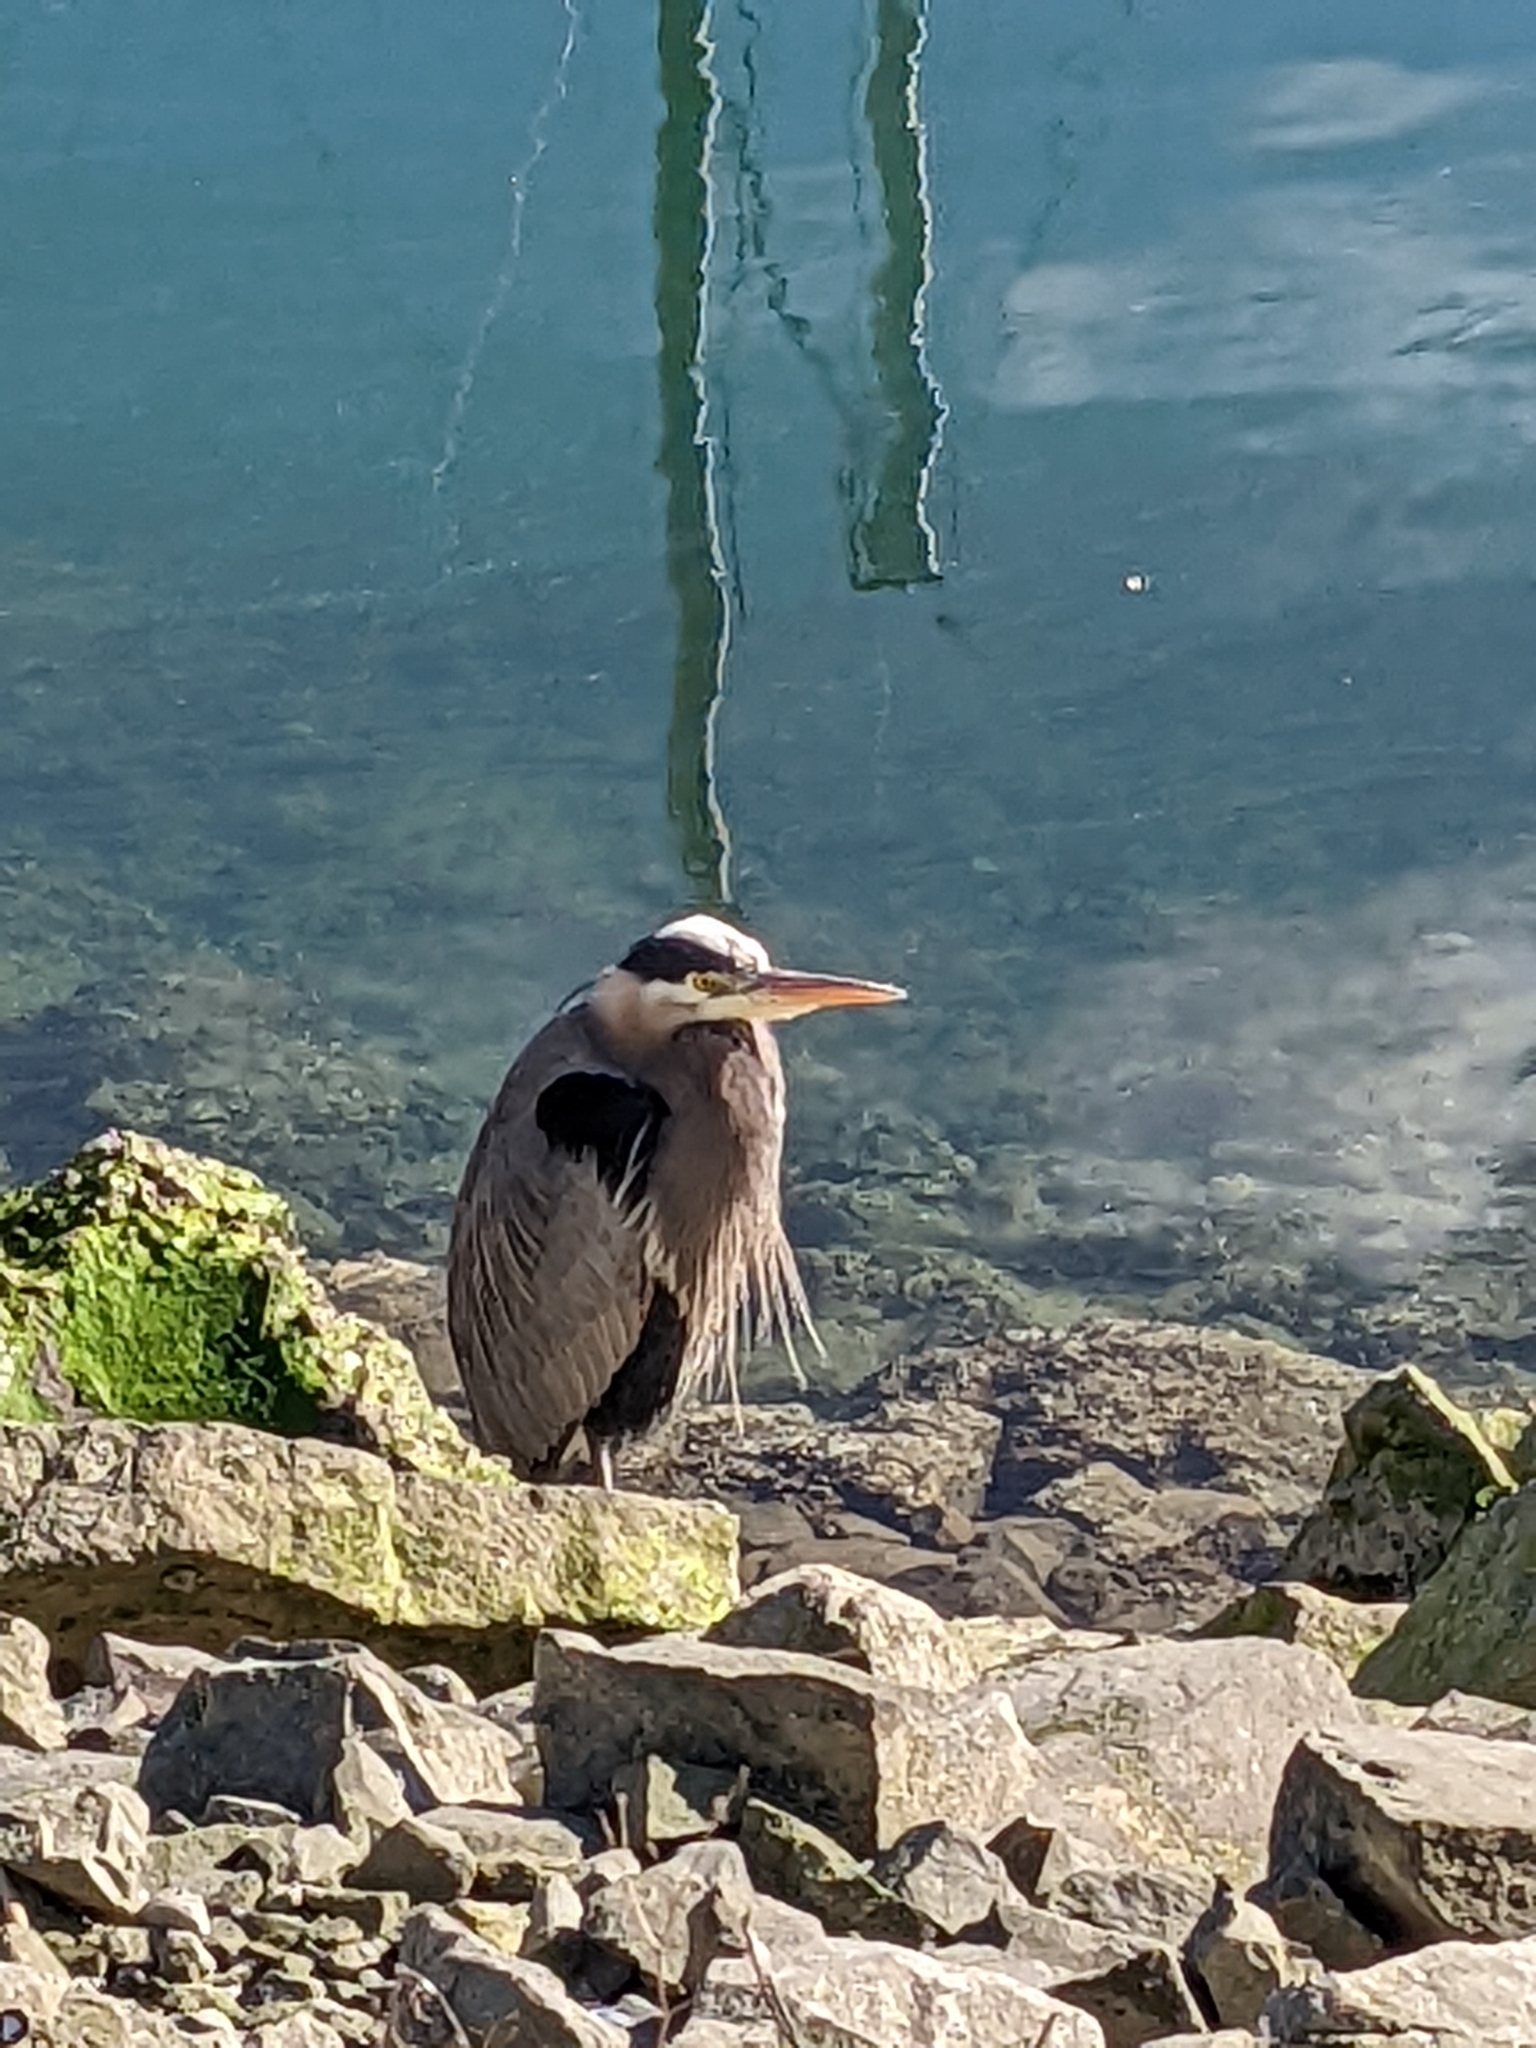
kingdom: Animalia
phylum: Chordata
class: Aves
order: Pelecaniformes
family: Ardeidae
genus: Ardea
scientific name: Ardea herodias
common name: Great blue heron
